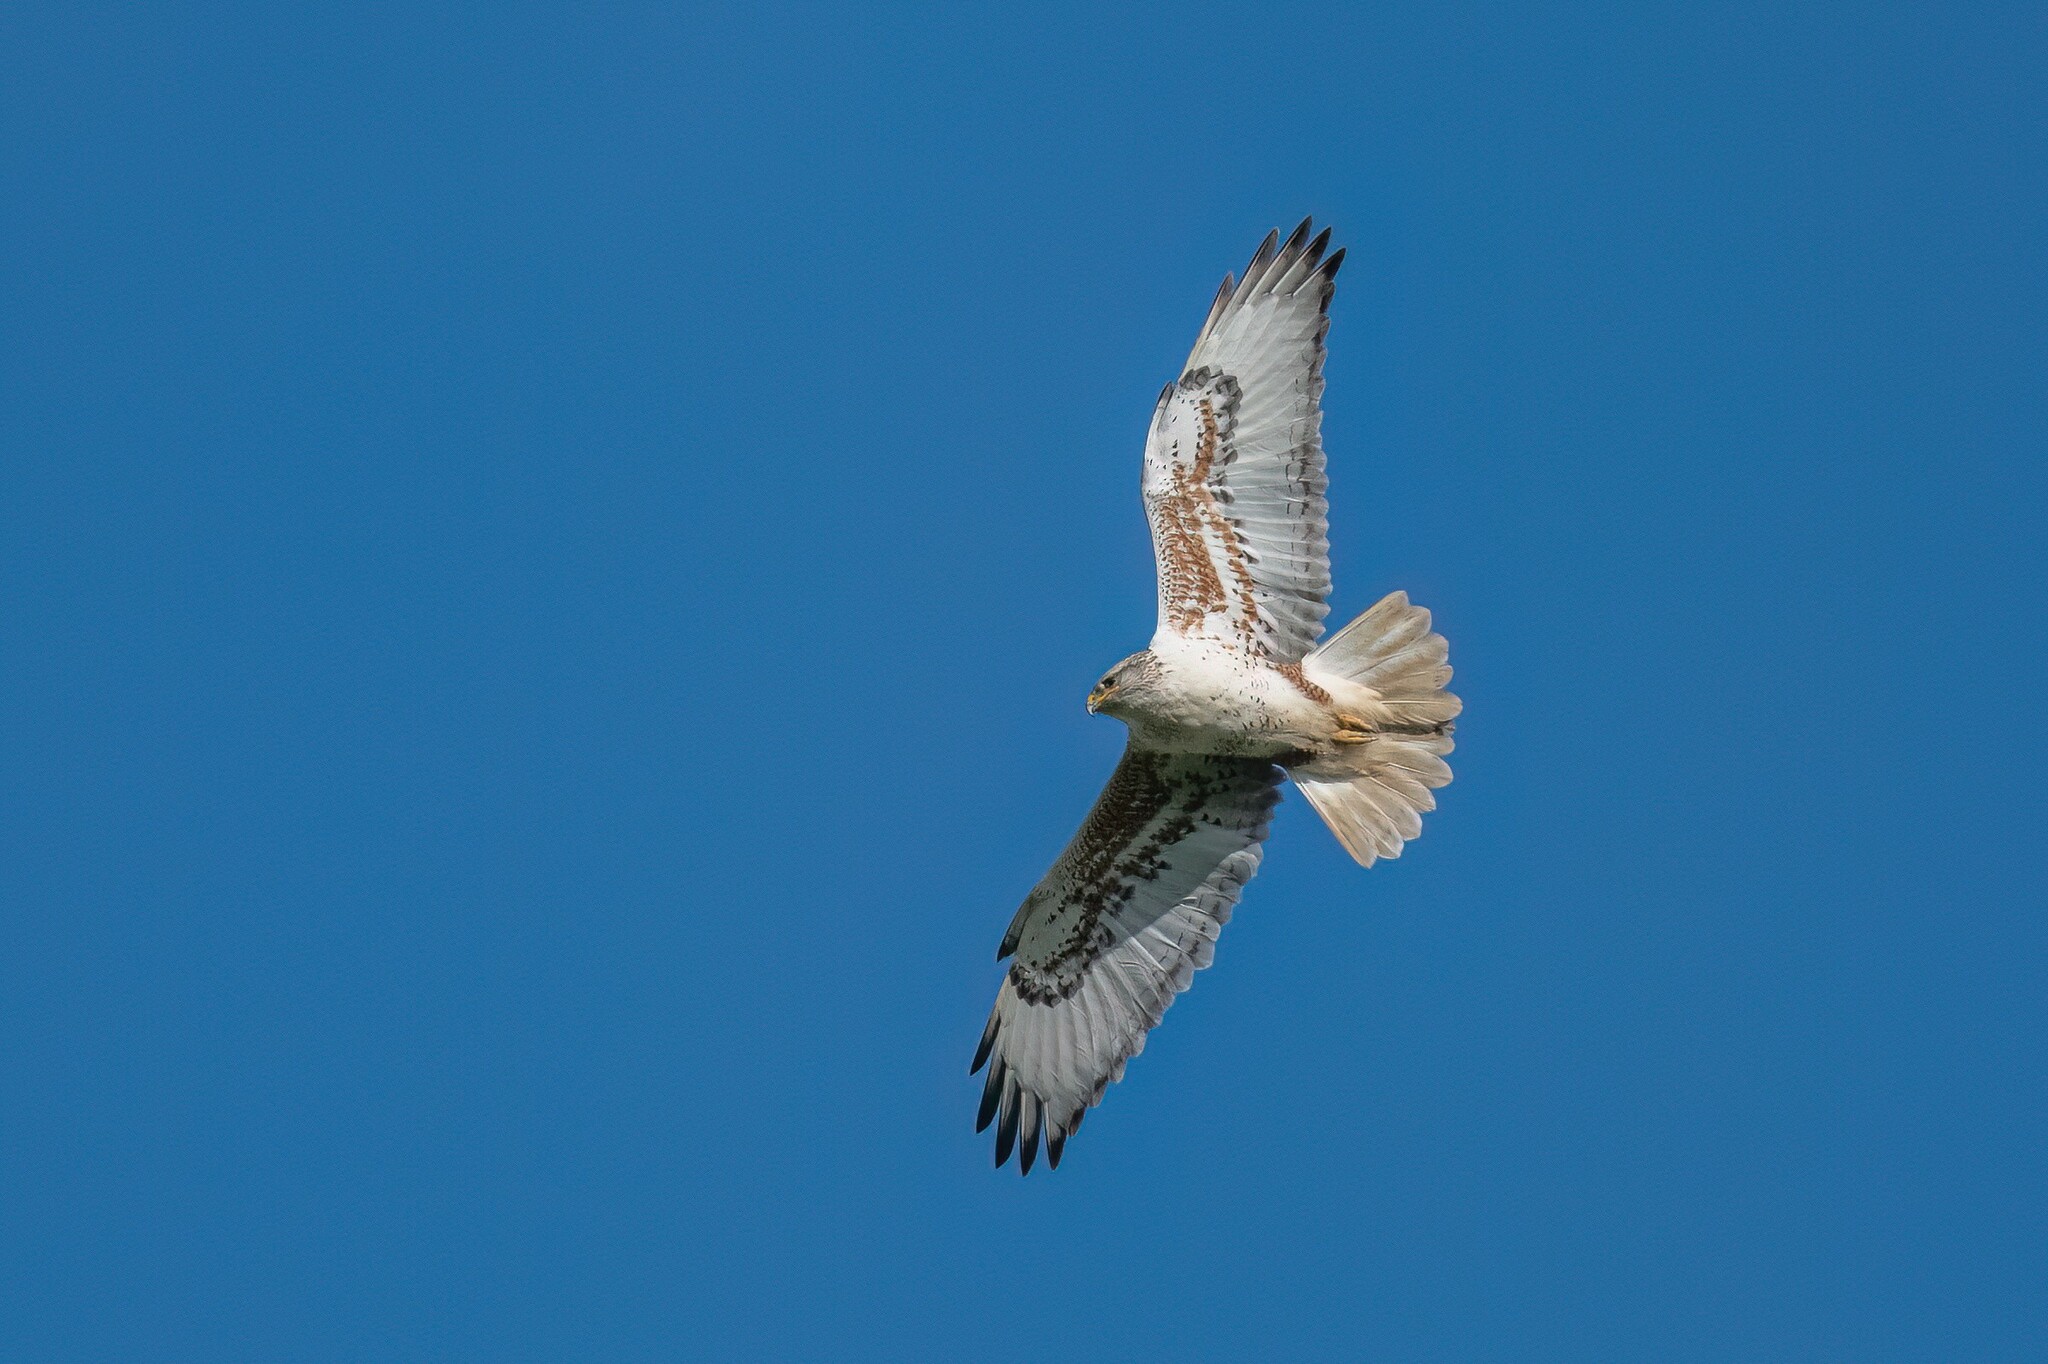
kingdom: Animalia
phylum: Chordata
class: Aves
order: Accipitriformes
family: Accipitridae
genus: Buteo
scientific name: Buteo regalis
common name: Ferruginous hawk
